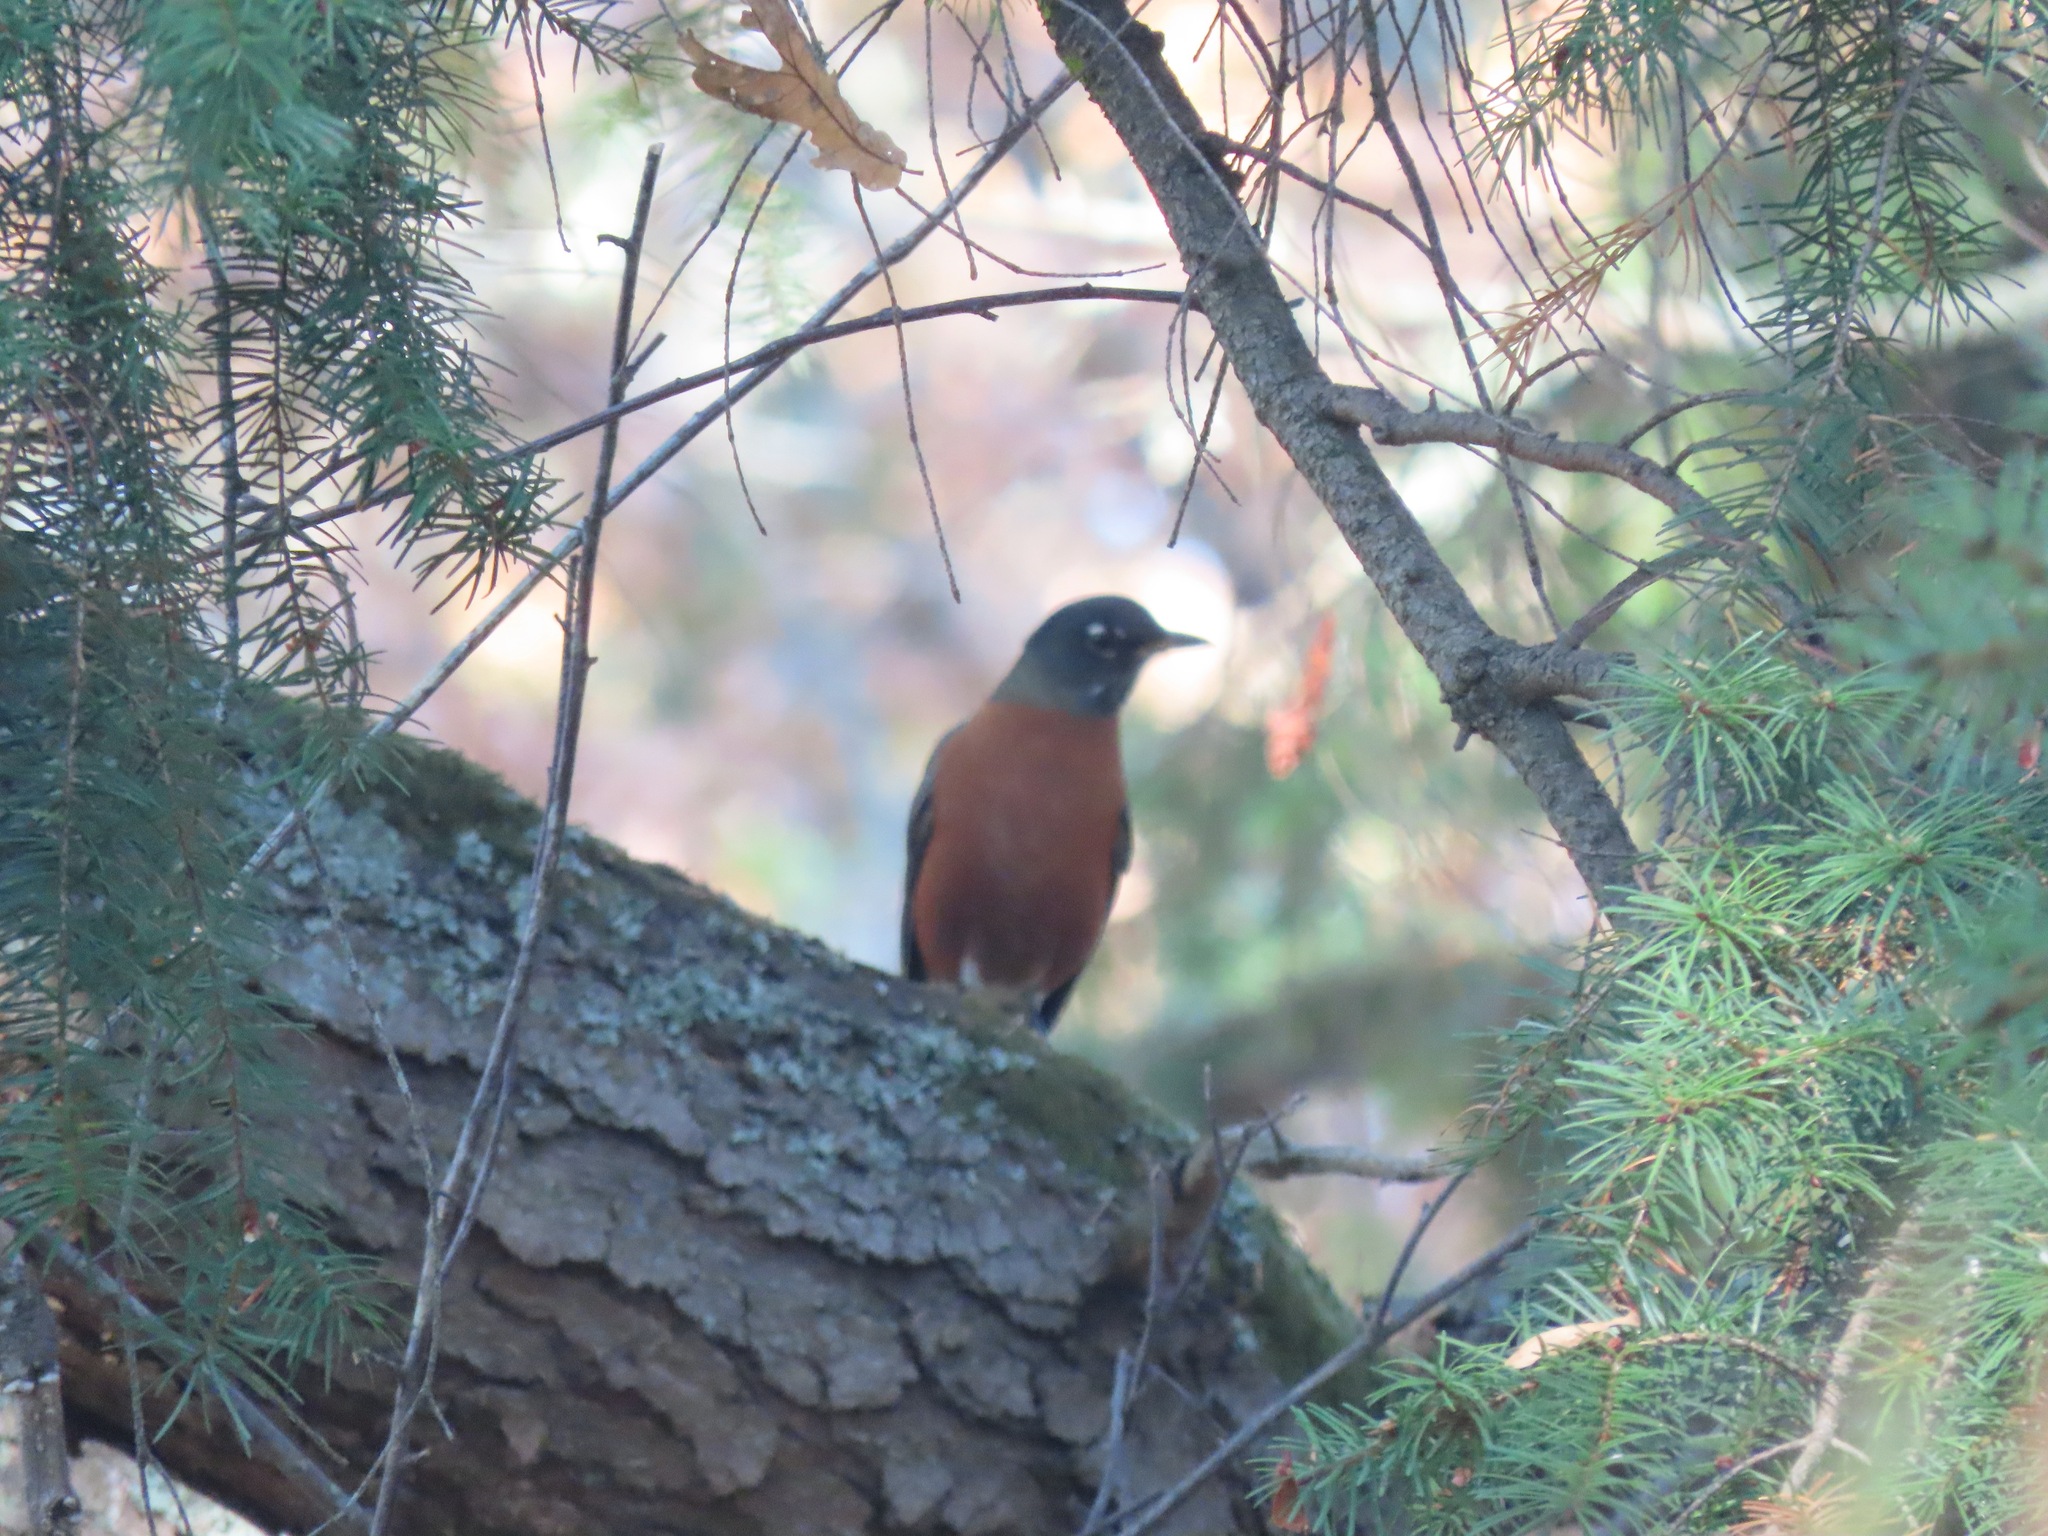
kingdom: Animalia
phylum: Chordata
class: Aves
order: Passeriformes
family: Turdidae
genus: Turdus
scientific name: Turdus migratorius
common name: American robin
